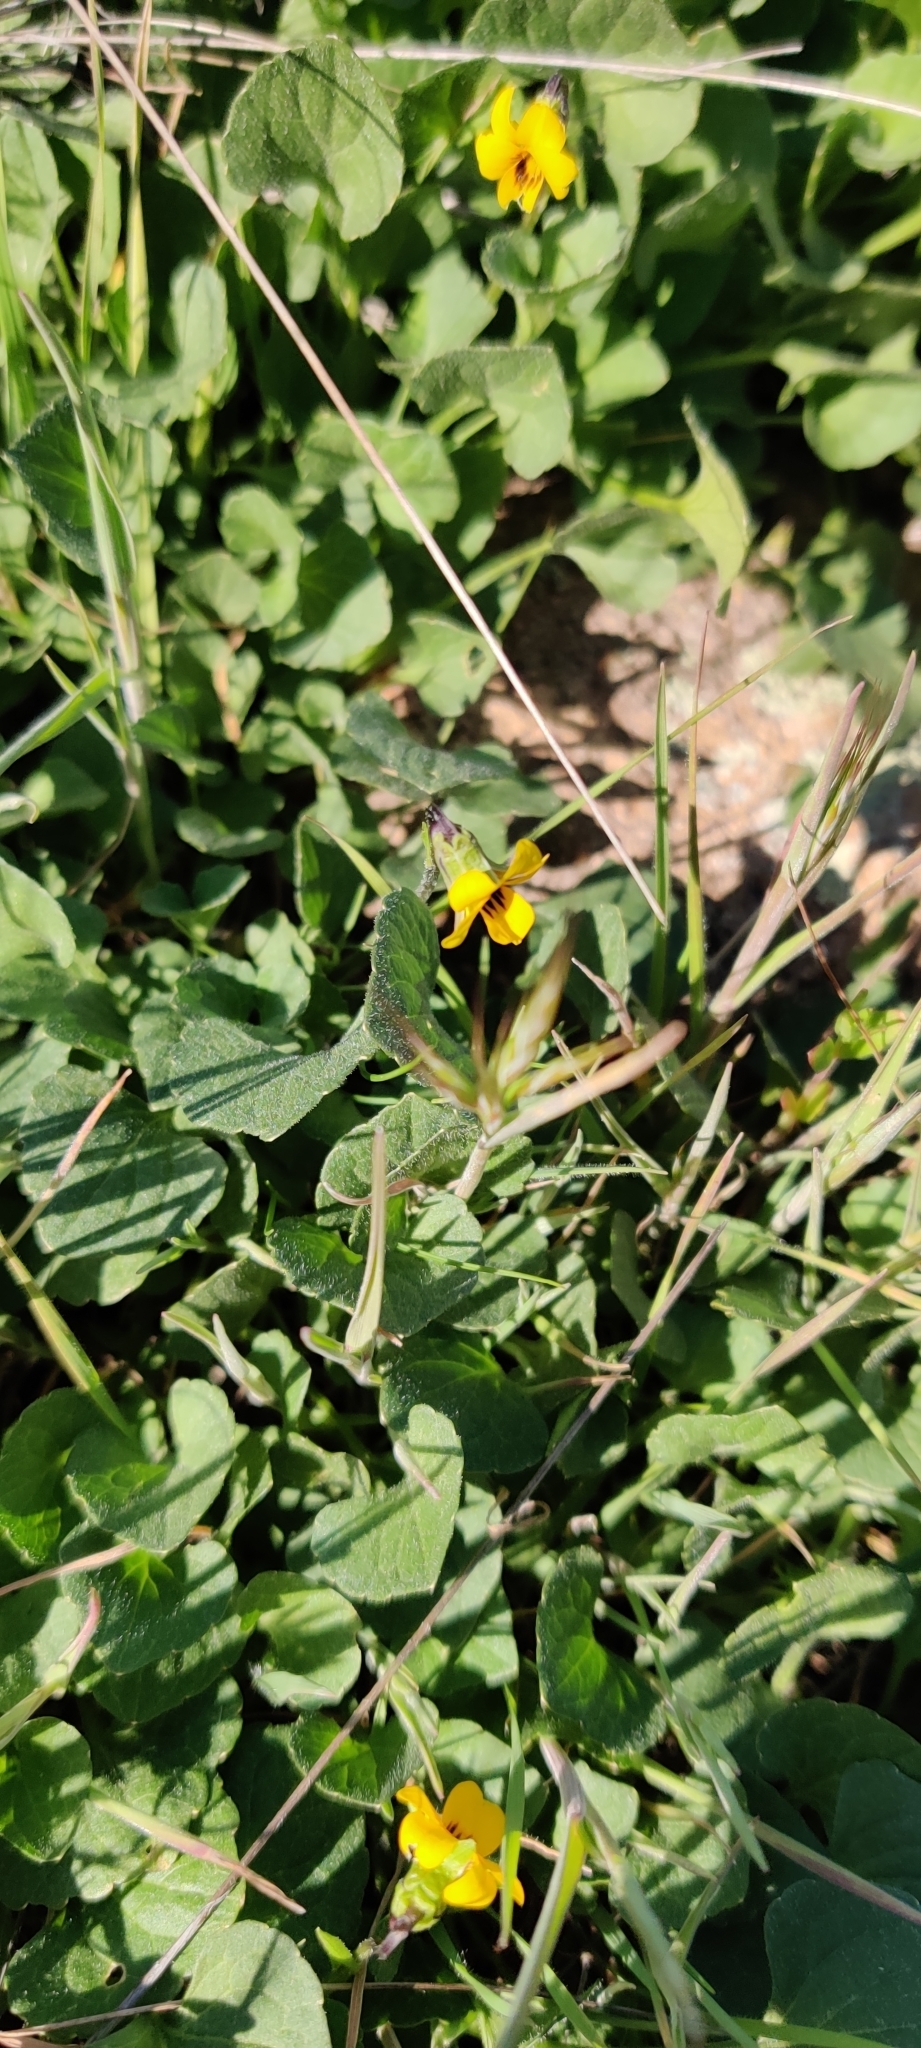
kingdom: Plantae
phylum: Tracheophyta
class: Magnoliopsida
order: Malpighiales
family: Violaceae
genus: Viola
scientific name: Viola pedunculata
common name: California golden violet
